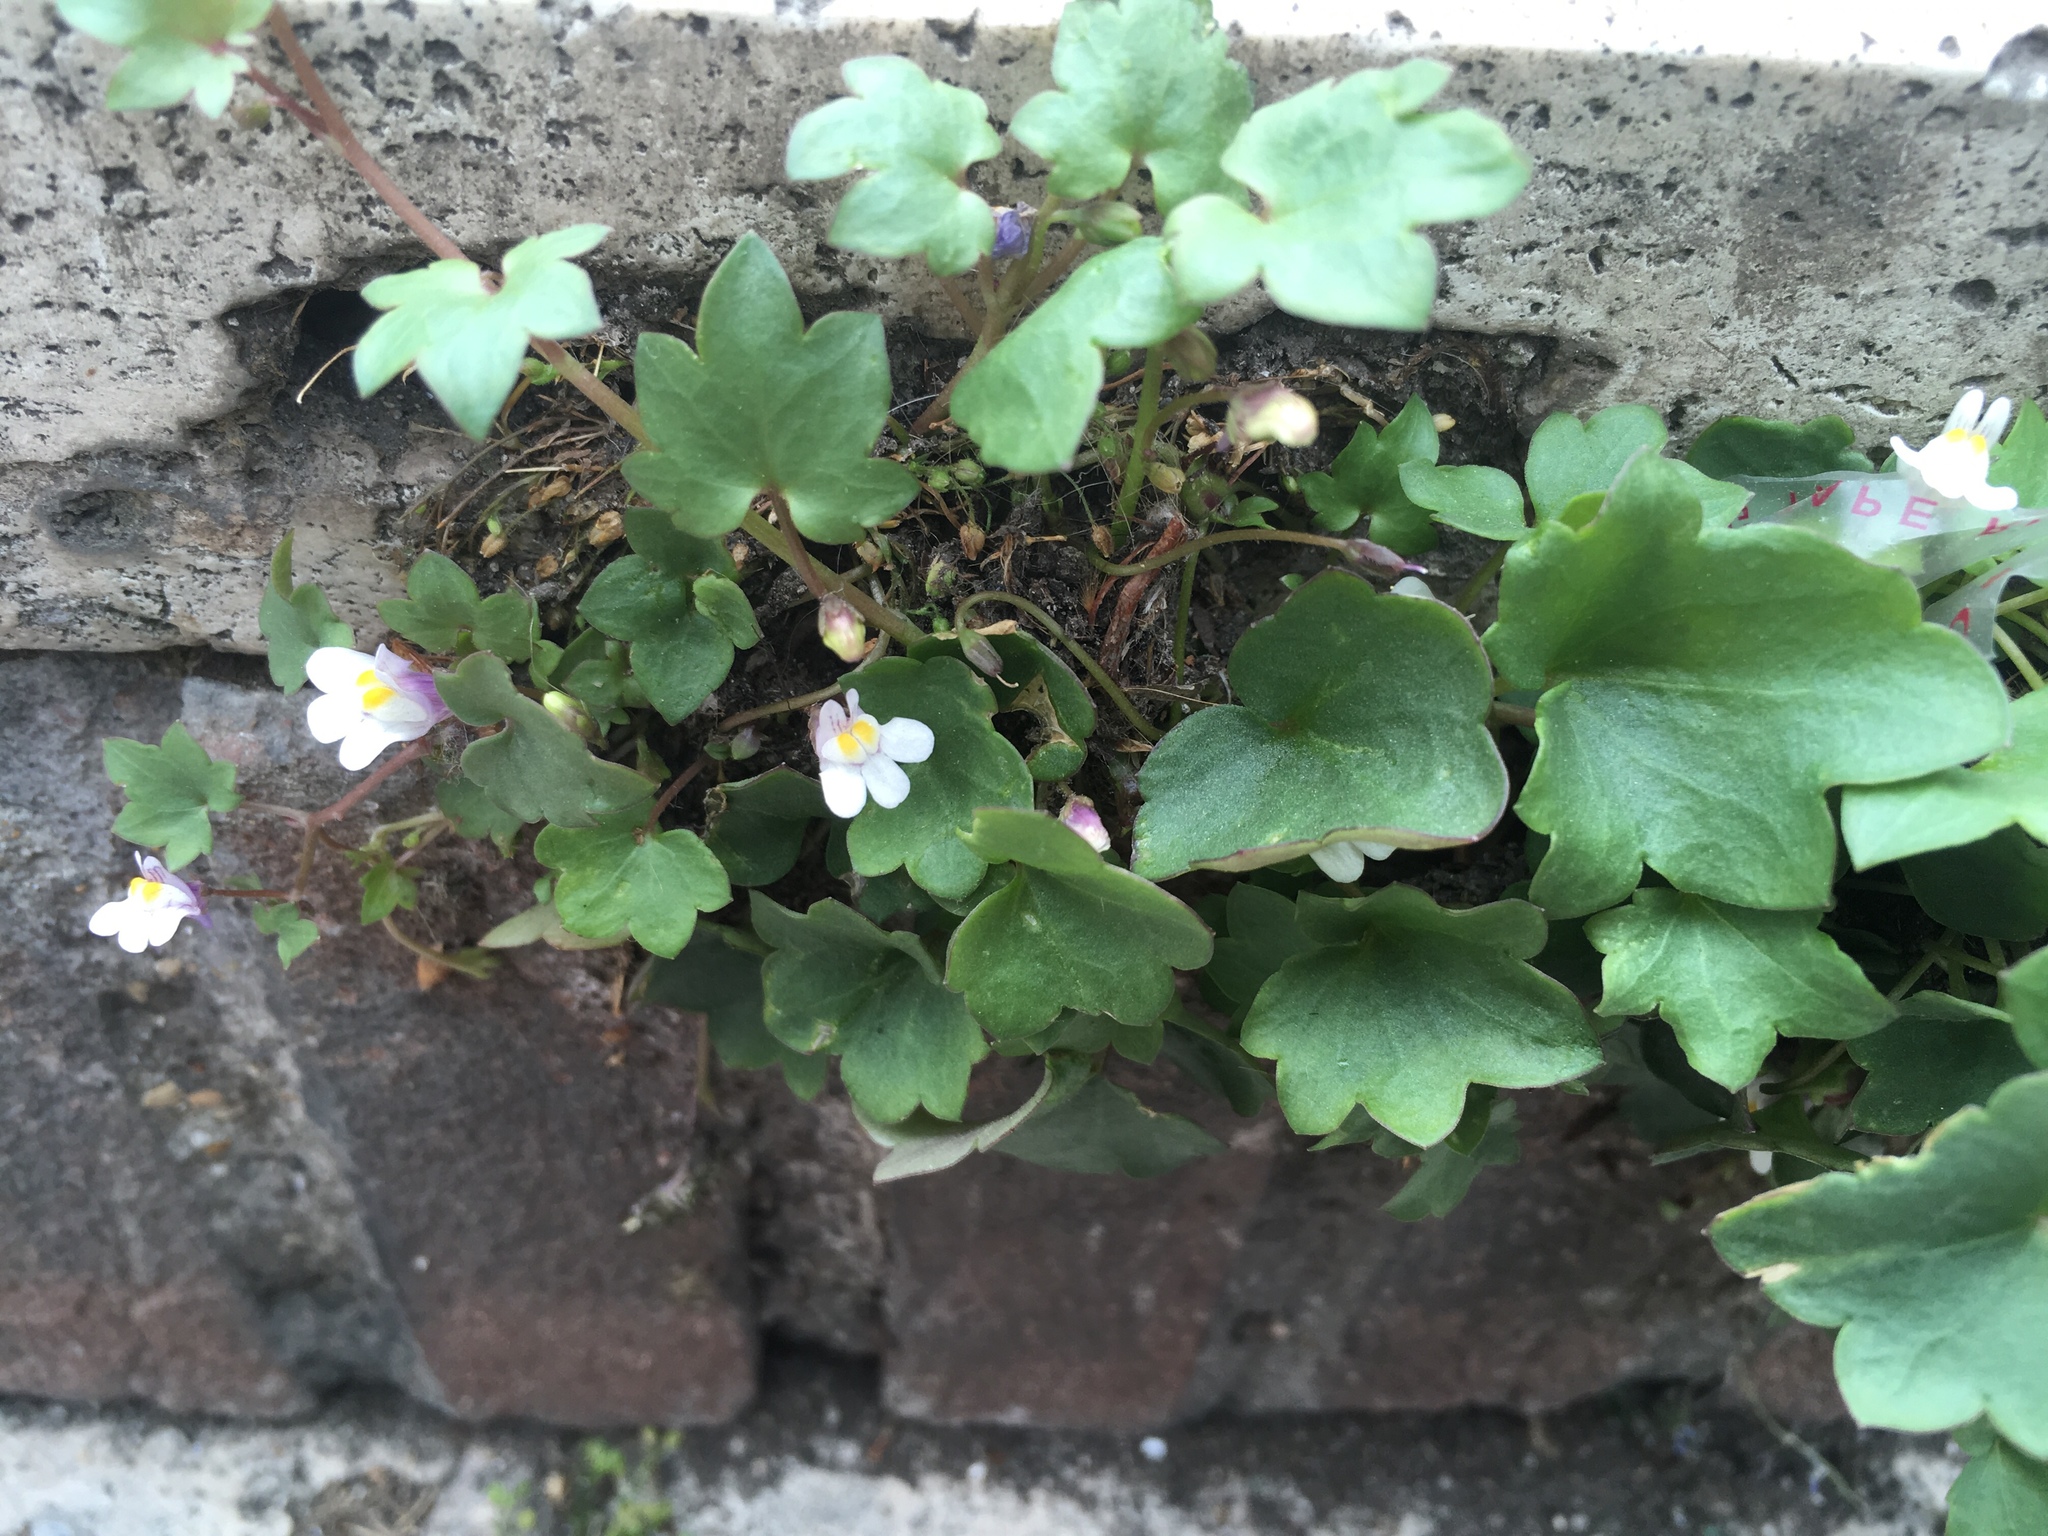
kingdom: Plantae
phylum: Tracheophyta
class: Magnoliopsida
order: Lamiales
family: Plantaginaceae
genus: Cymbalaria
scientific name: Cymbalaria muralis
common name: Ivy-leaved toadflax
